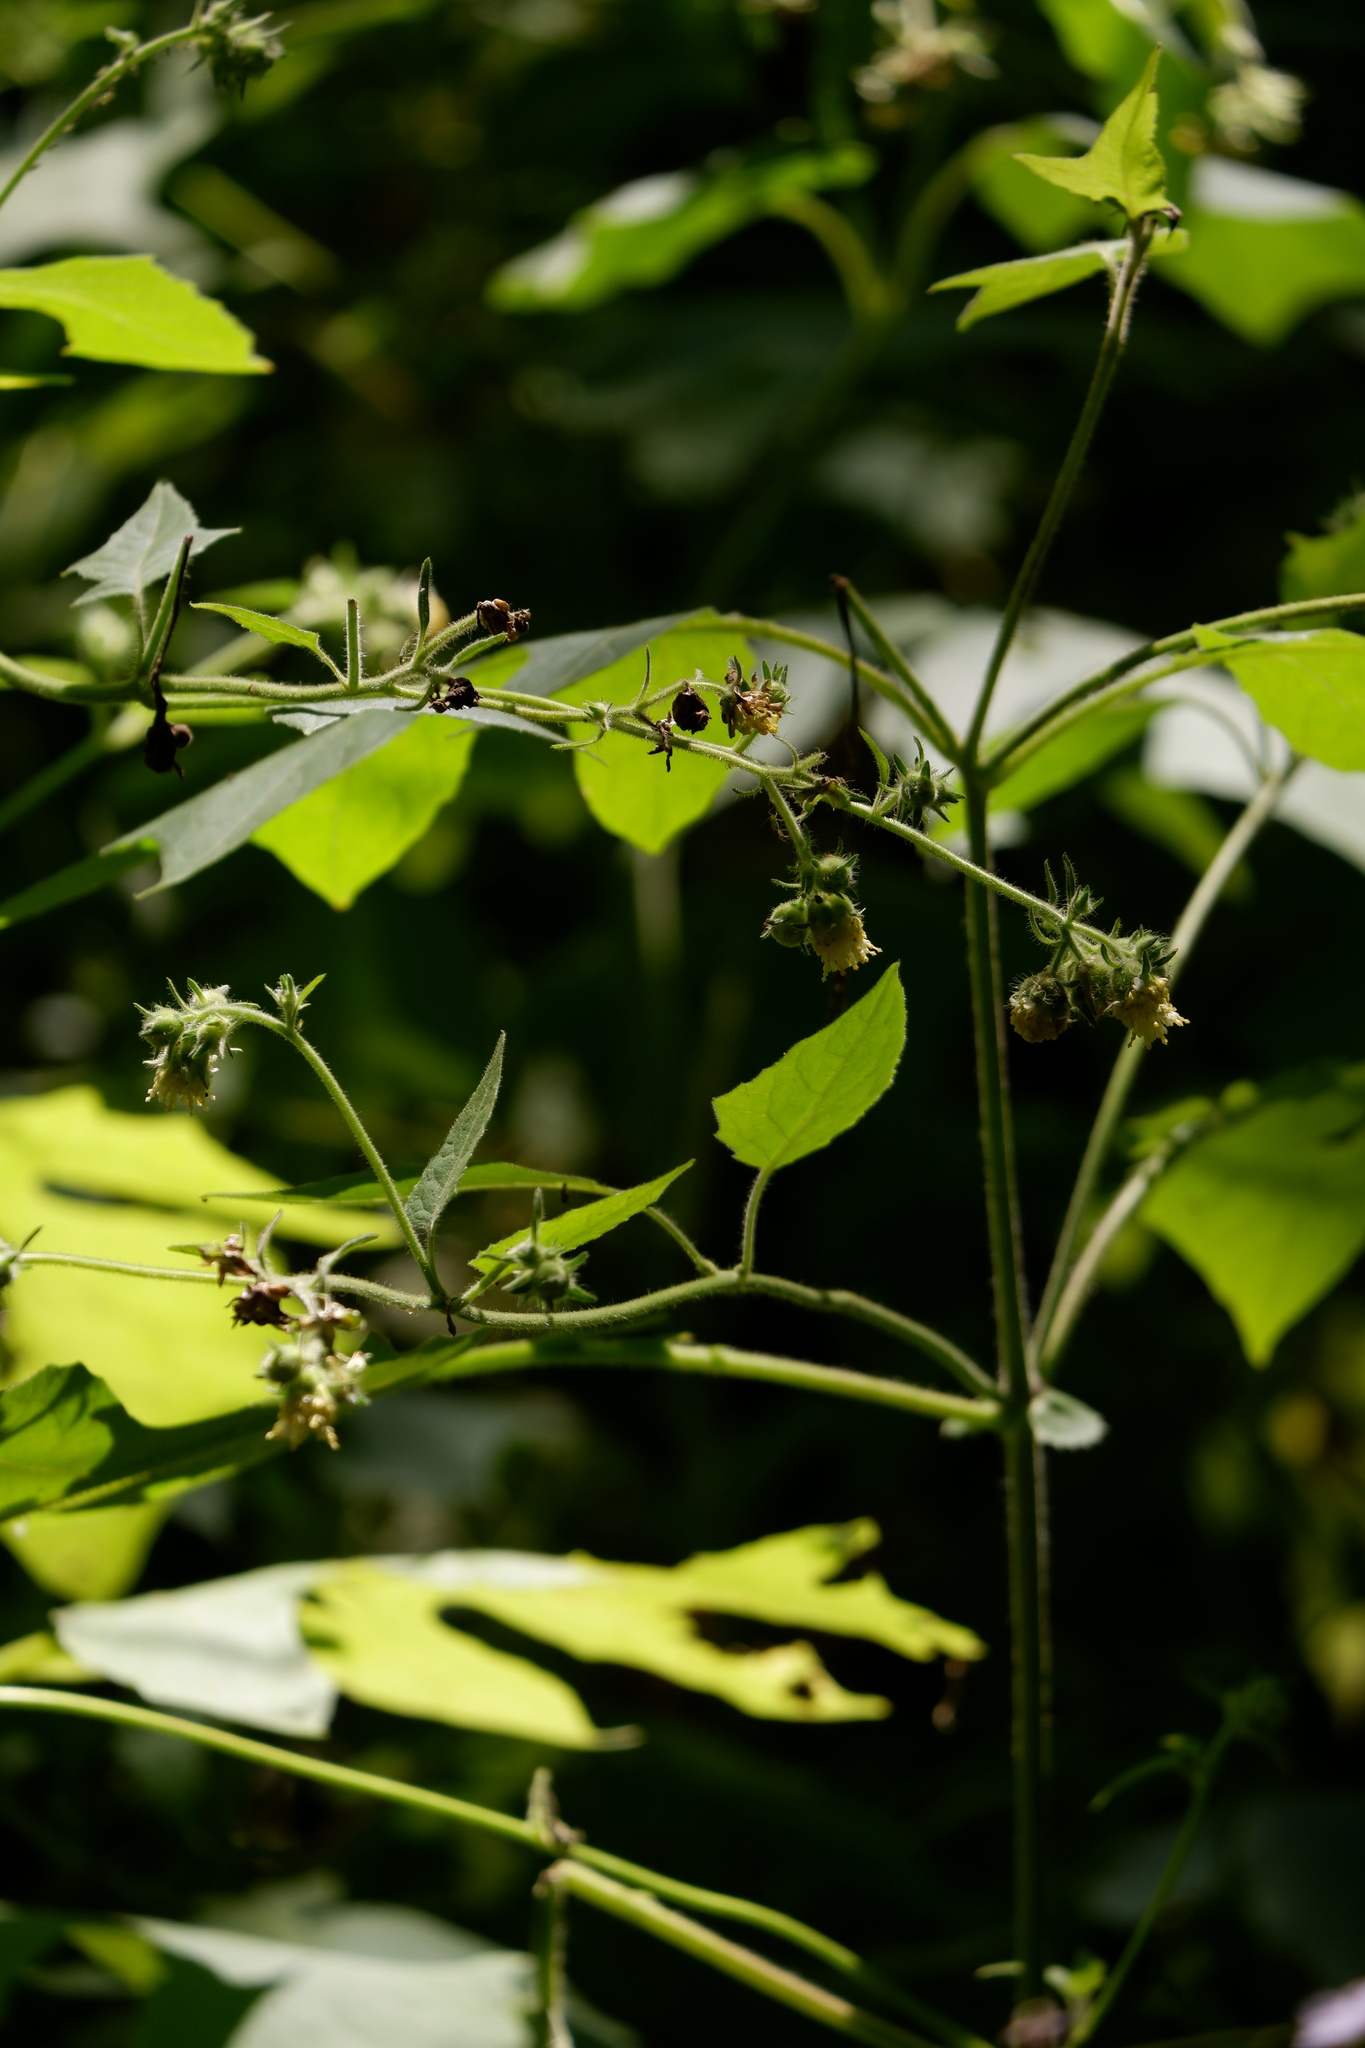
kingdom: Plantae
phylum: Tracheophyta
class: Magnoliopsida
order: Asterales
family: Asteraceae
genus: Polymnia
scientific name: Polymnia canadensis
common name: Pale-flowered leafcup
